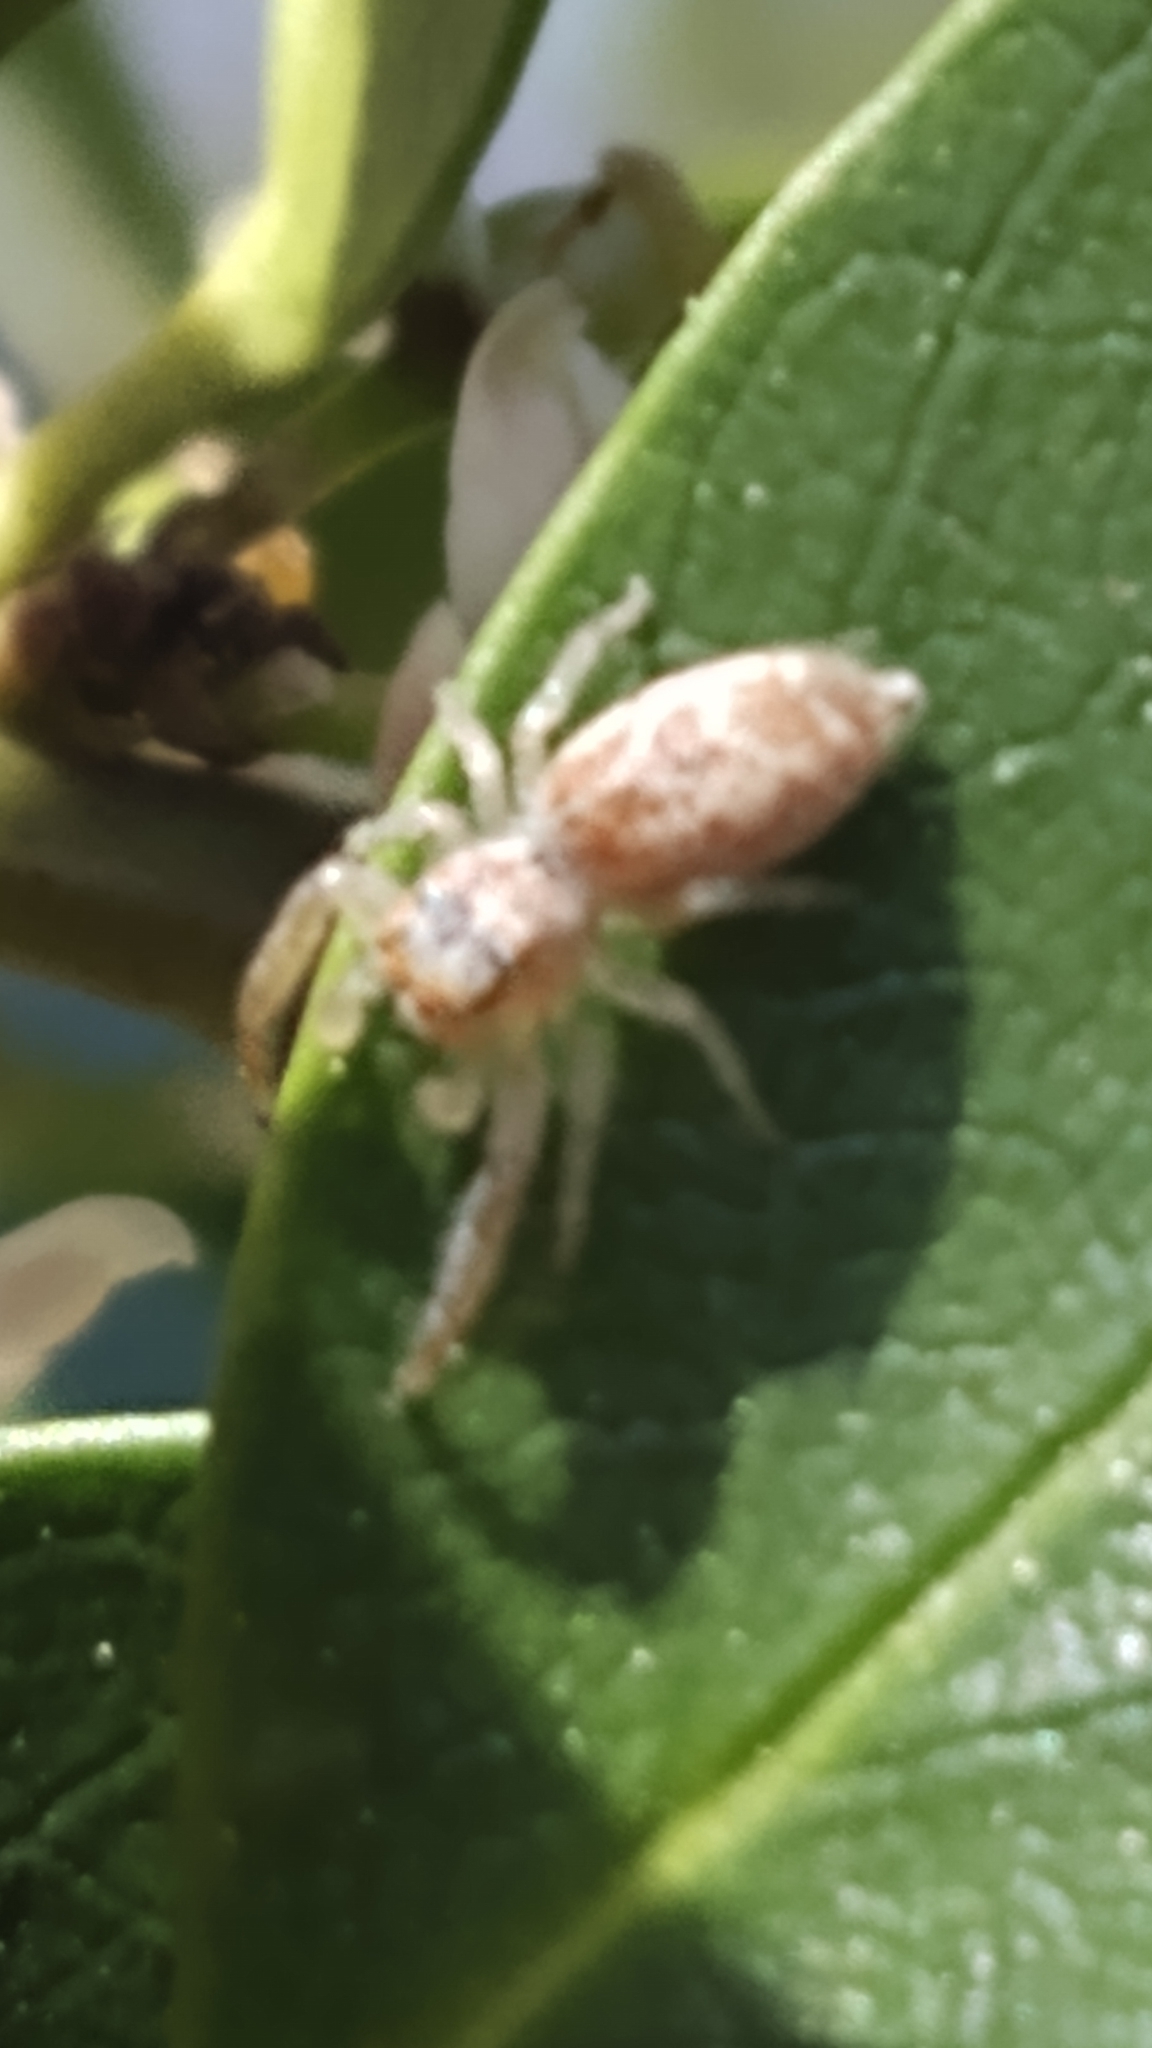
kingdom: Animalia
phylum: Arthropoda
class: Arachnida
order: Araneae
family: Salticidae
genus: Hentzia
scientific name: Hentzia mitrata
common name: White-jawed jumping spider
